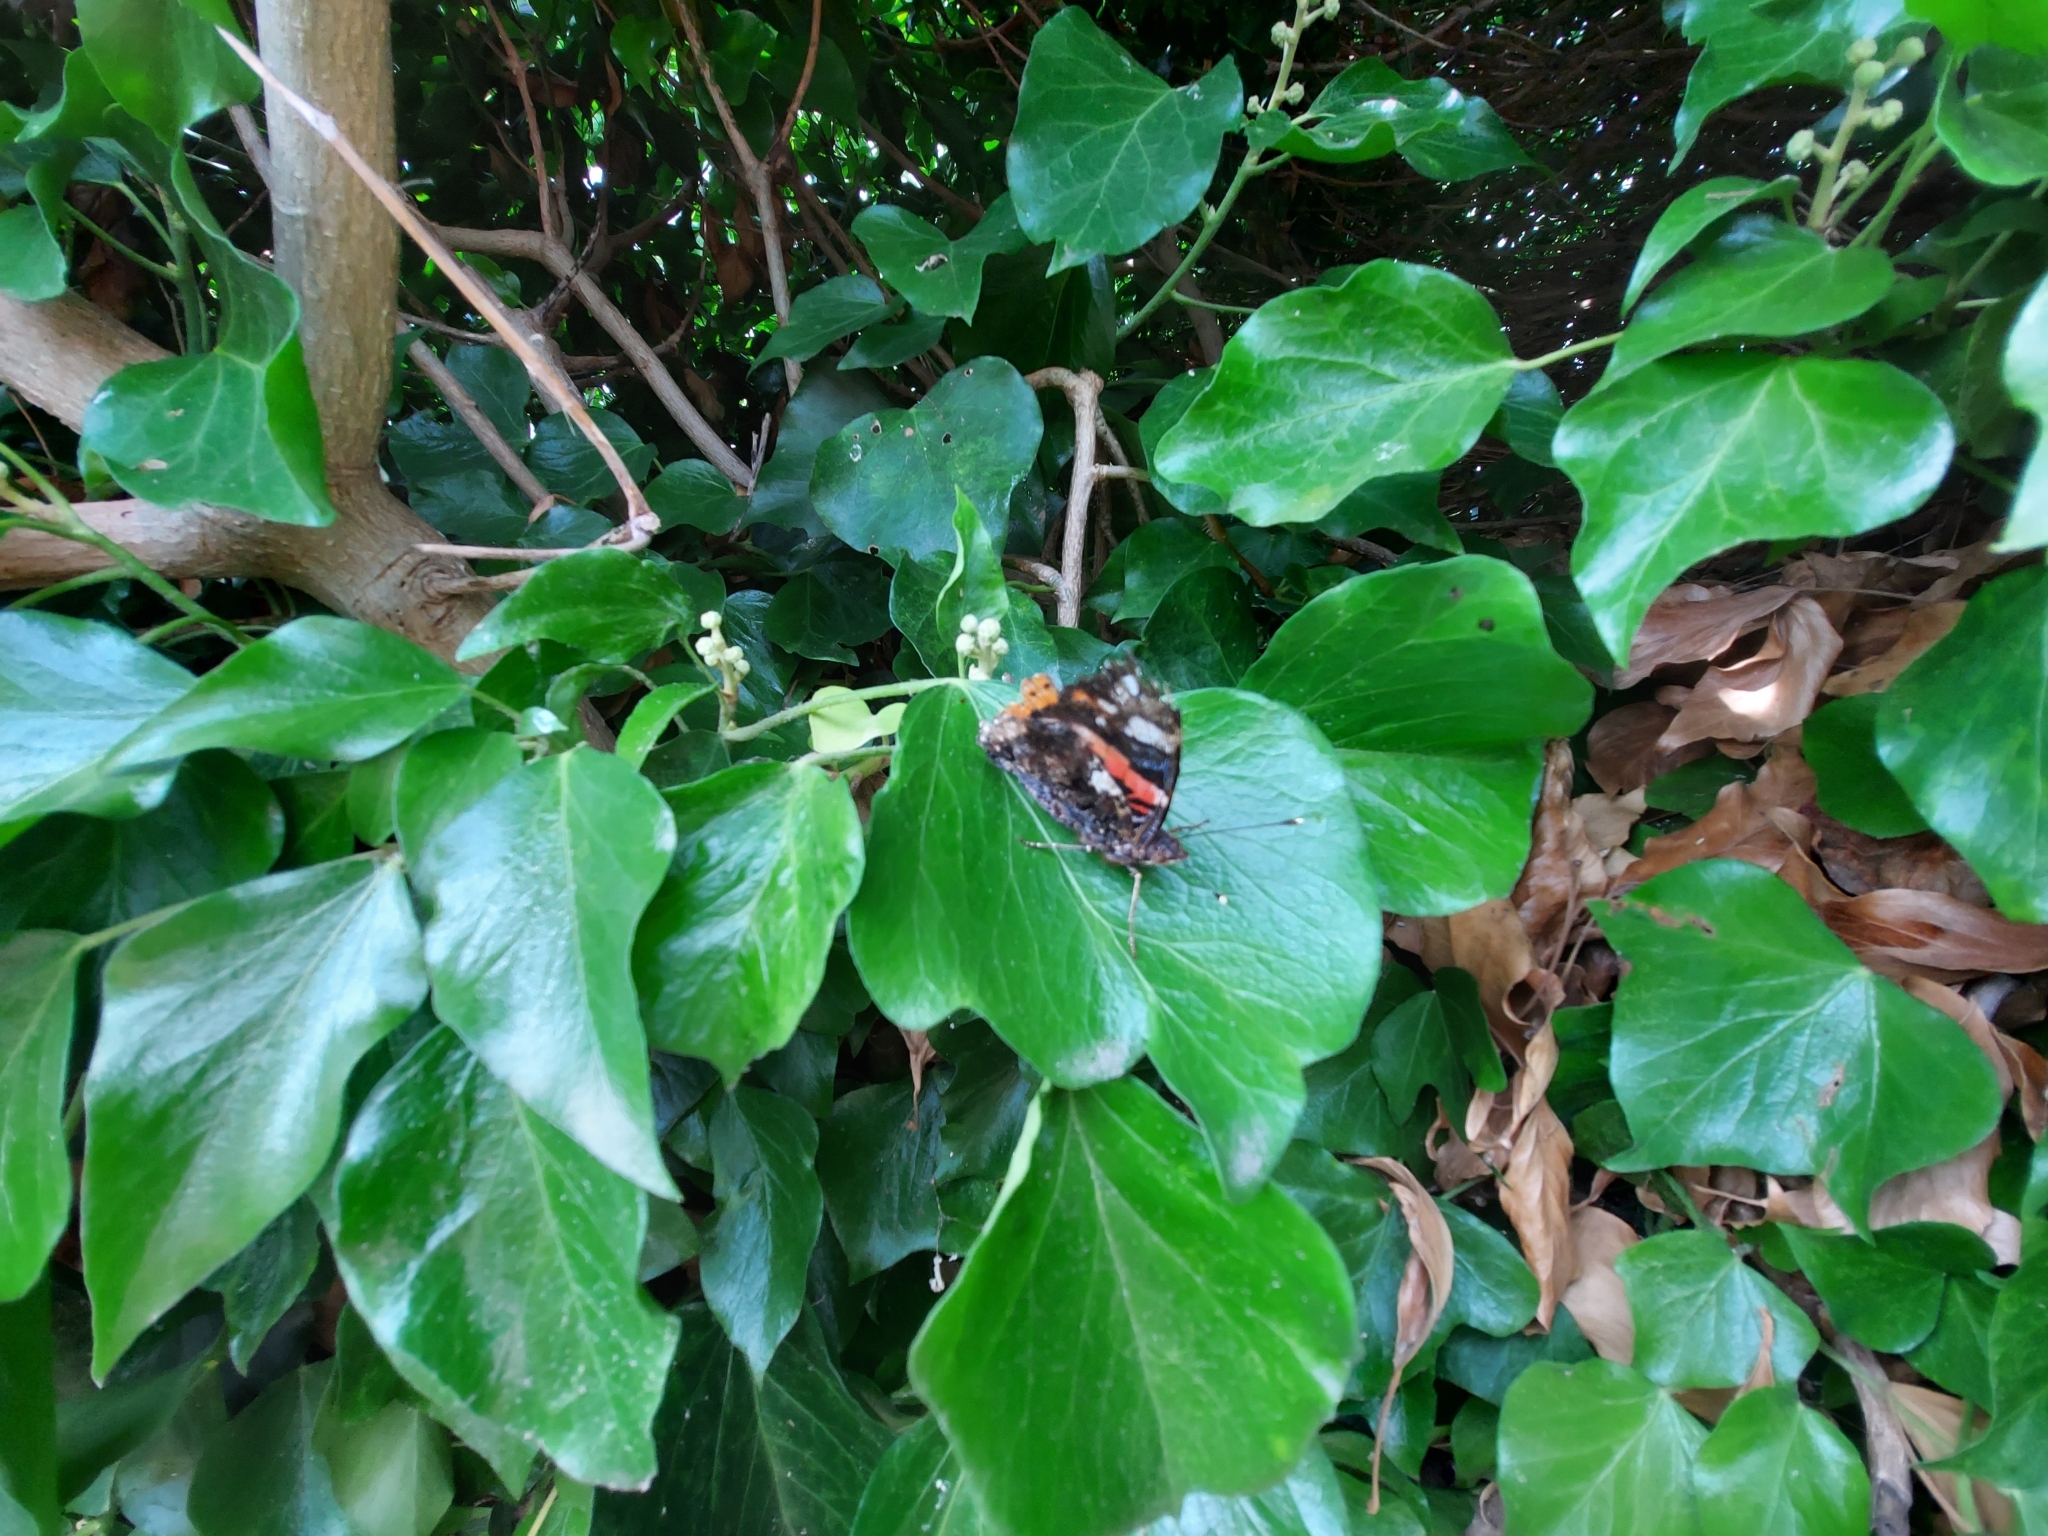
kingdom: Animalia
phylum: Arthropoda
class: Insecta
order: Lepidoptera
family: Nymphalidae
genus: Vanessa
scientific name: Vanessa atalanta
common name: Red admiral
